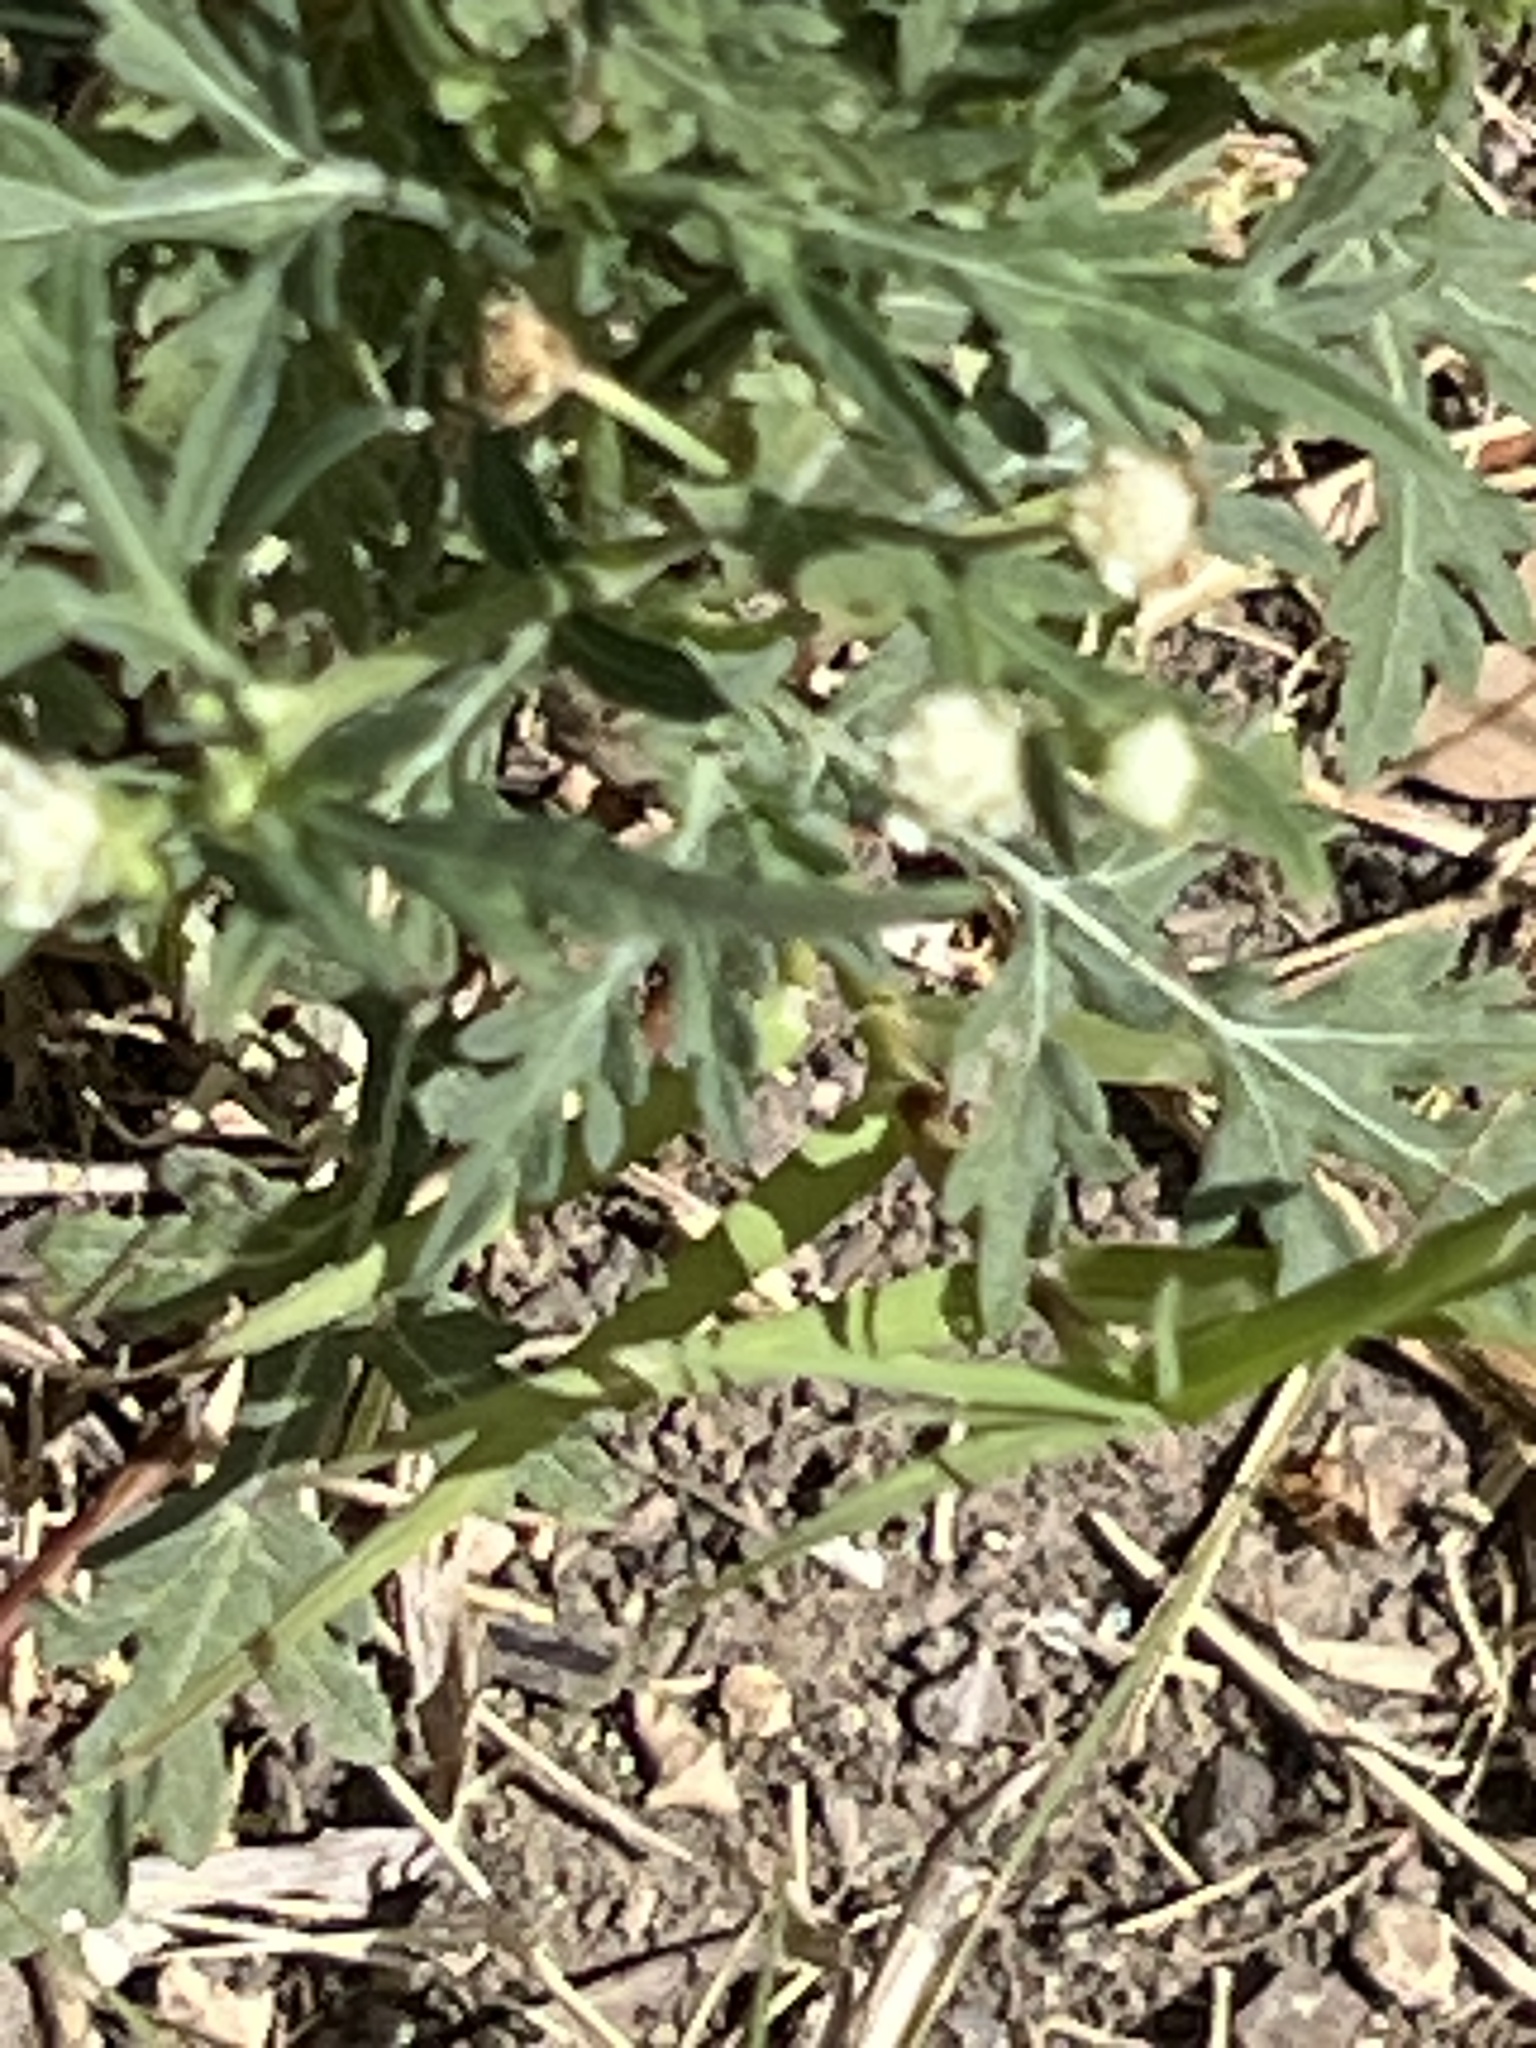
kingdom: Plantae
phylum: Tracheophyta
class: Magnoliopsida
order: Asterales
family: Asteraceae
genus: Parthenium
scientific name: Parthenium hysterophorus
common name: Santa maria feverfew
